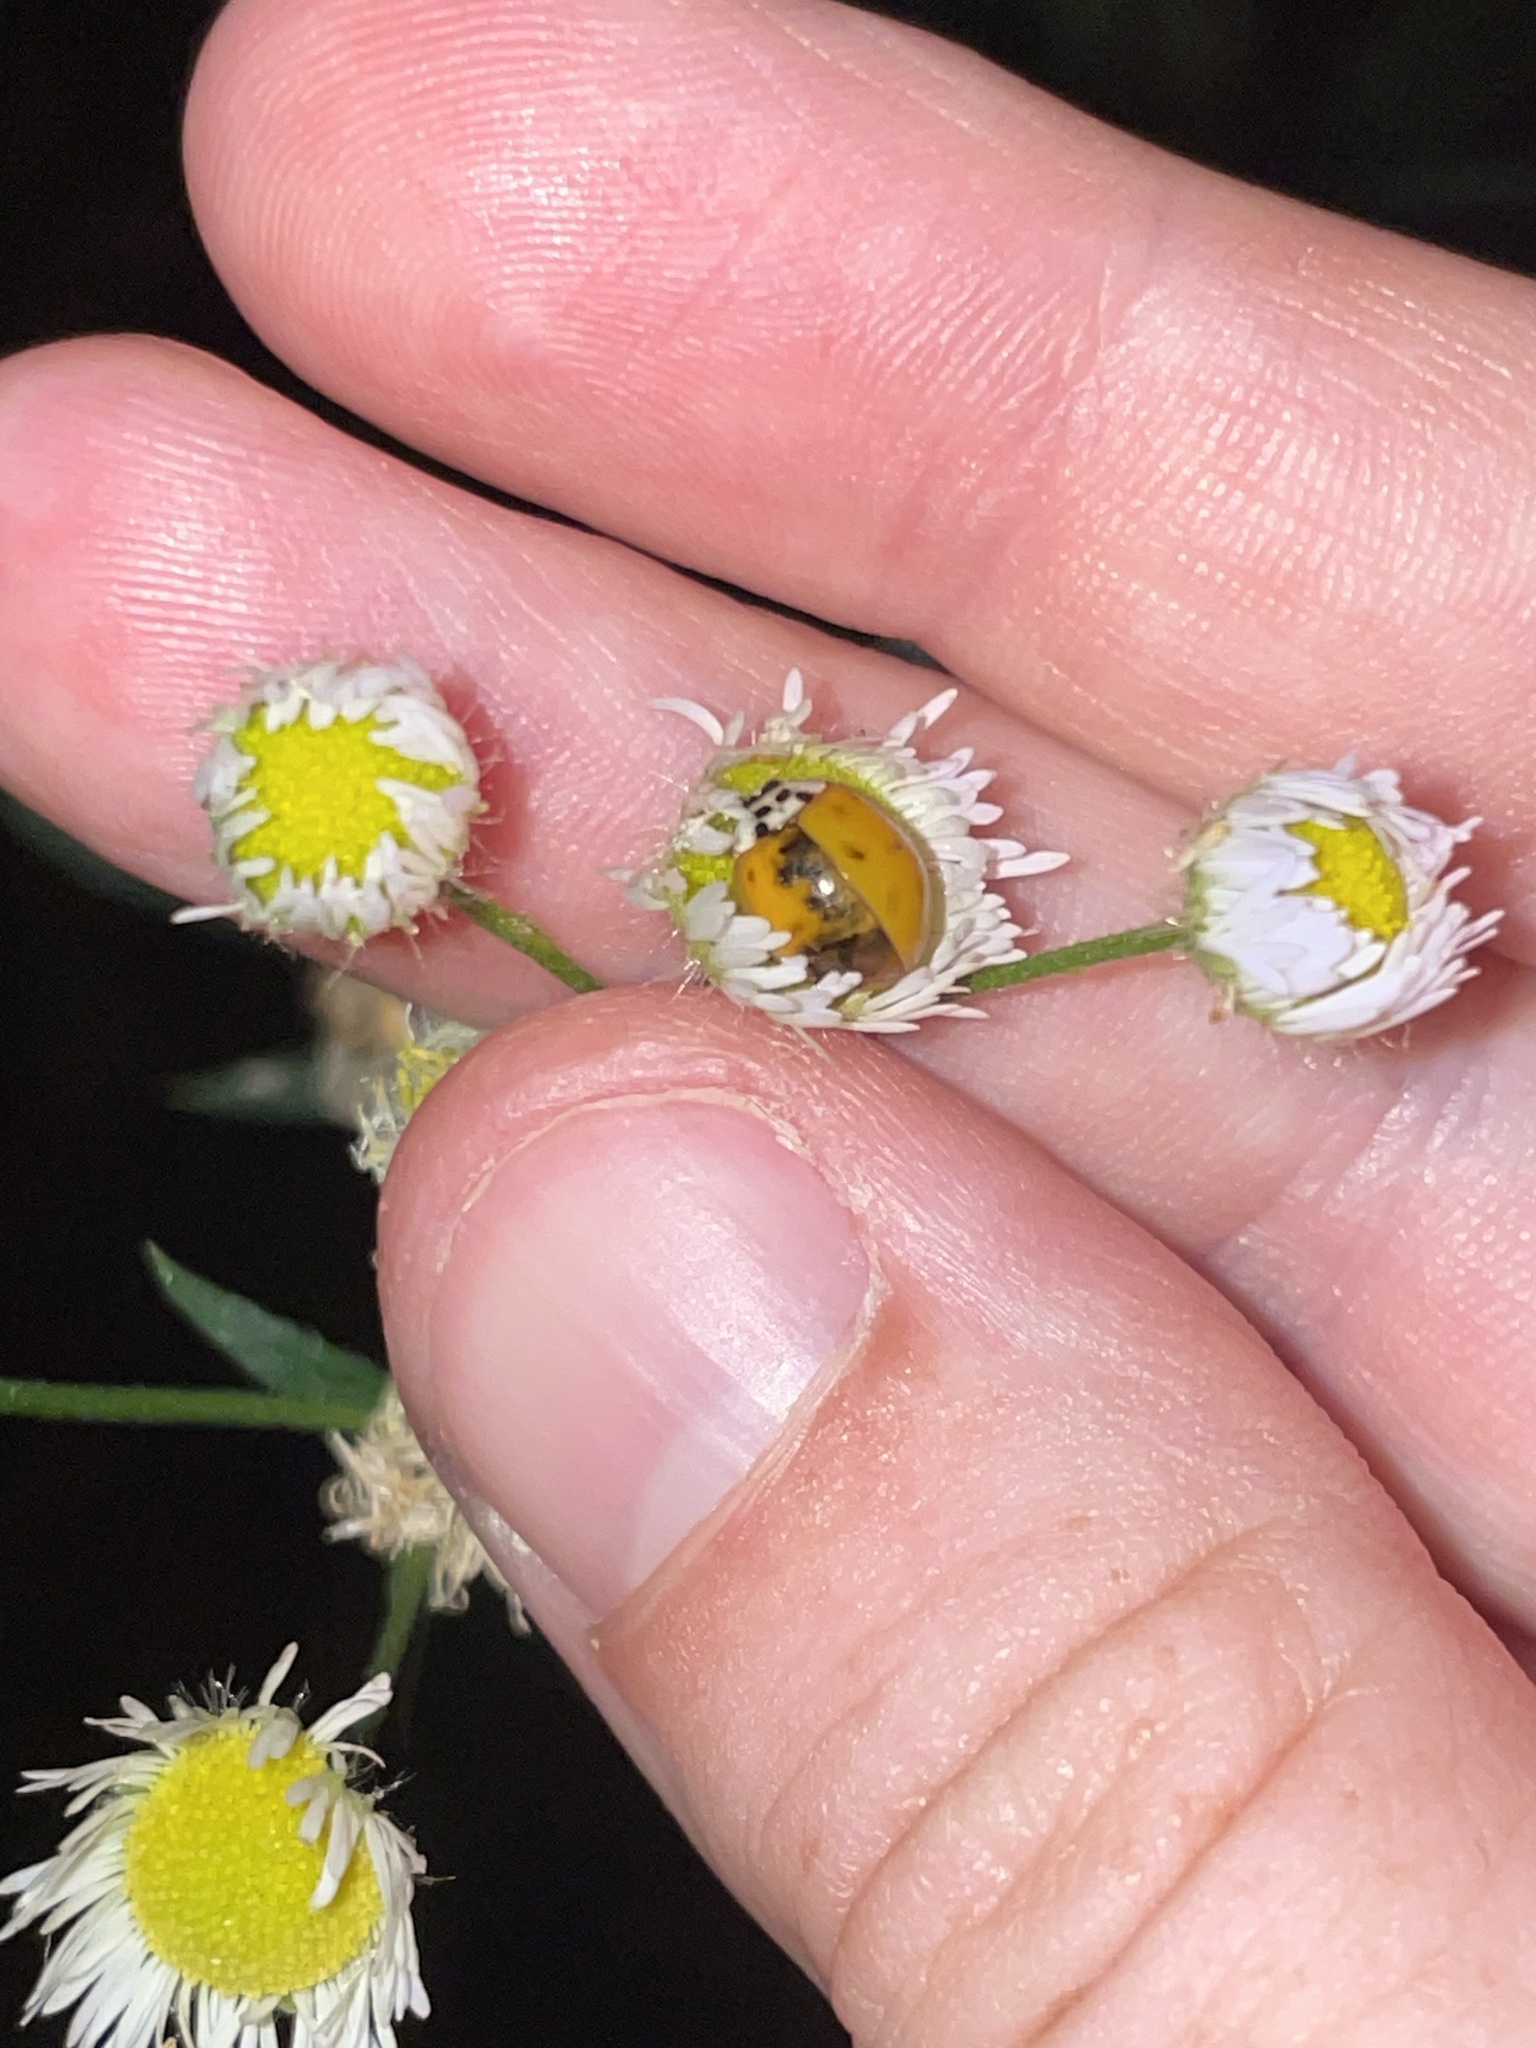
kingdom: Animalia
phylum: Arthropoda
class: Insecta
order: Coleoptera
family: Coccinellidae
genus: Harmonia
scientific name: Harmonia axyridis
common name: Harlequin ladybird
